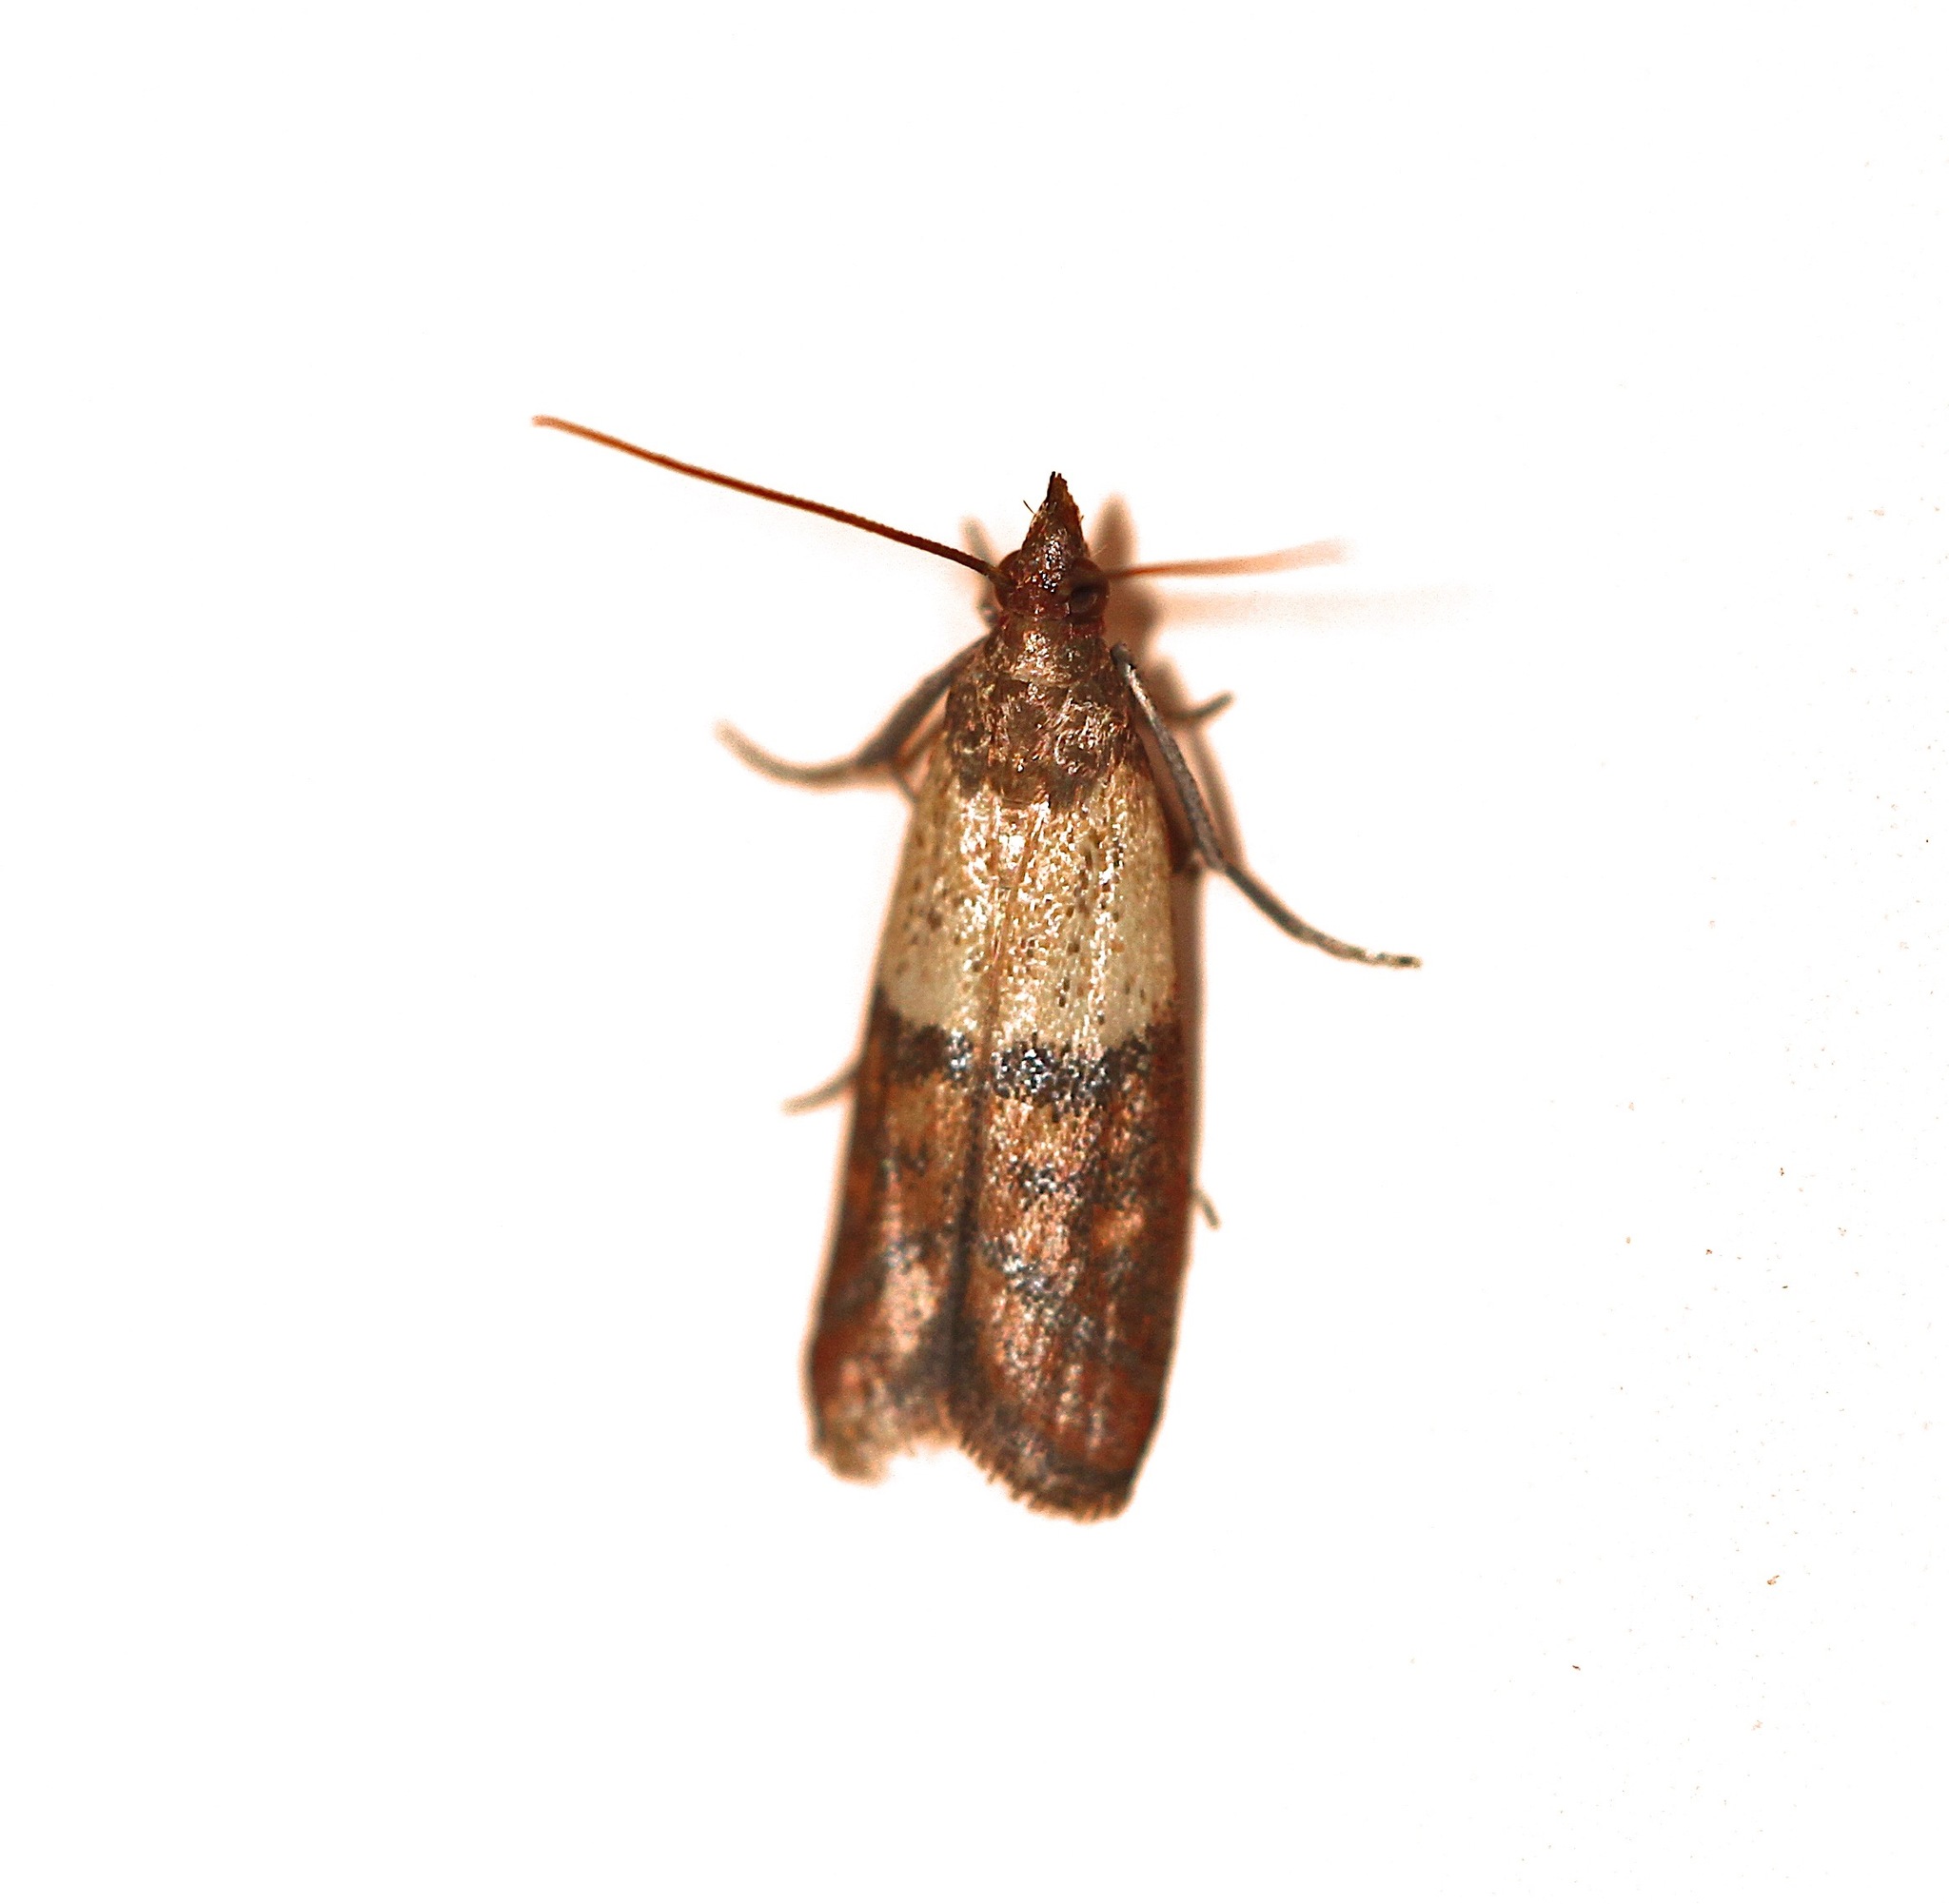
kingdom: Animalia
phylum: Arthropoda
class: Insecta
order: Lepidoptera
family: Pyralidae
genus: Plodia
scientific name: Plodia interpunctella
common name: Indian meal moth
